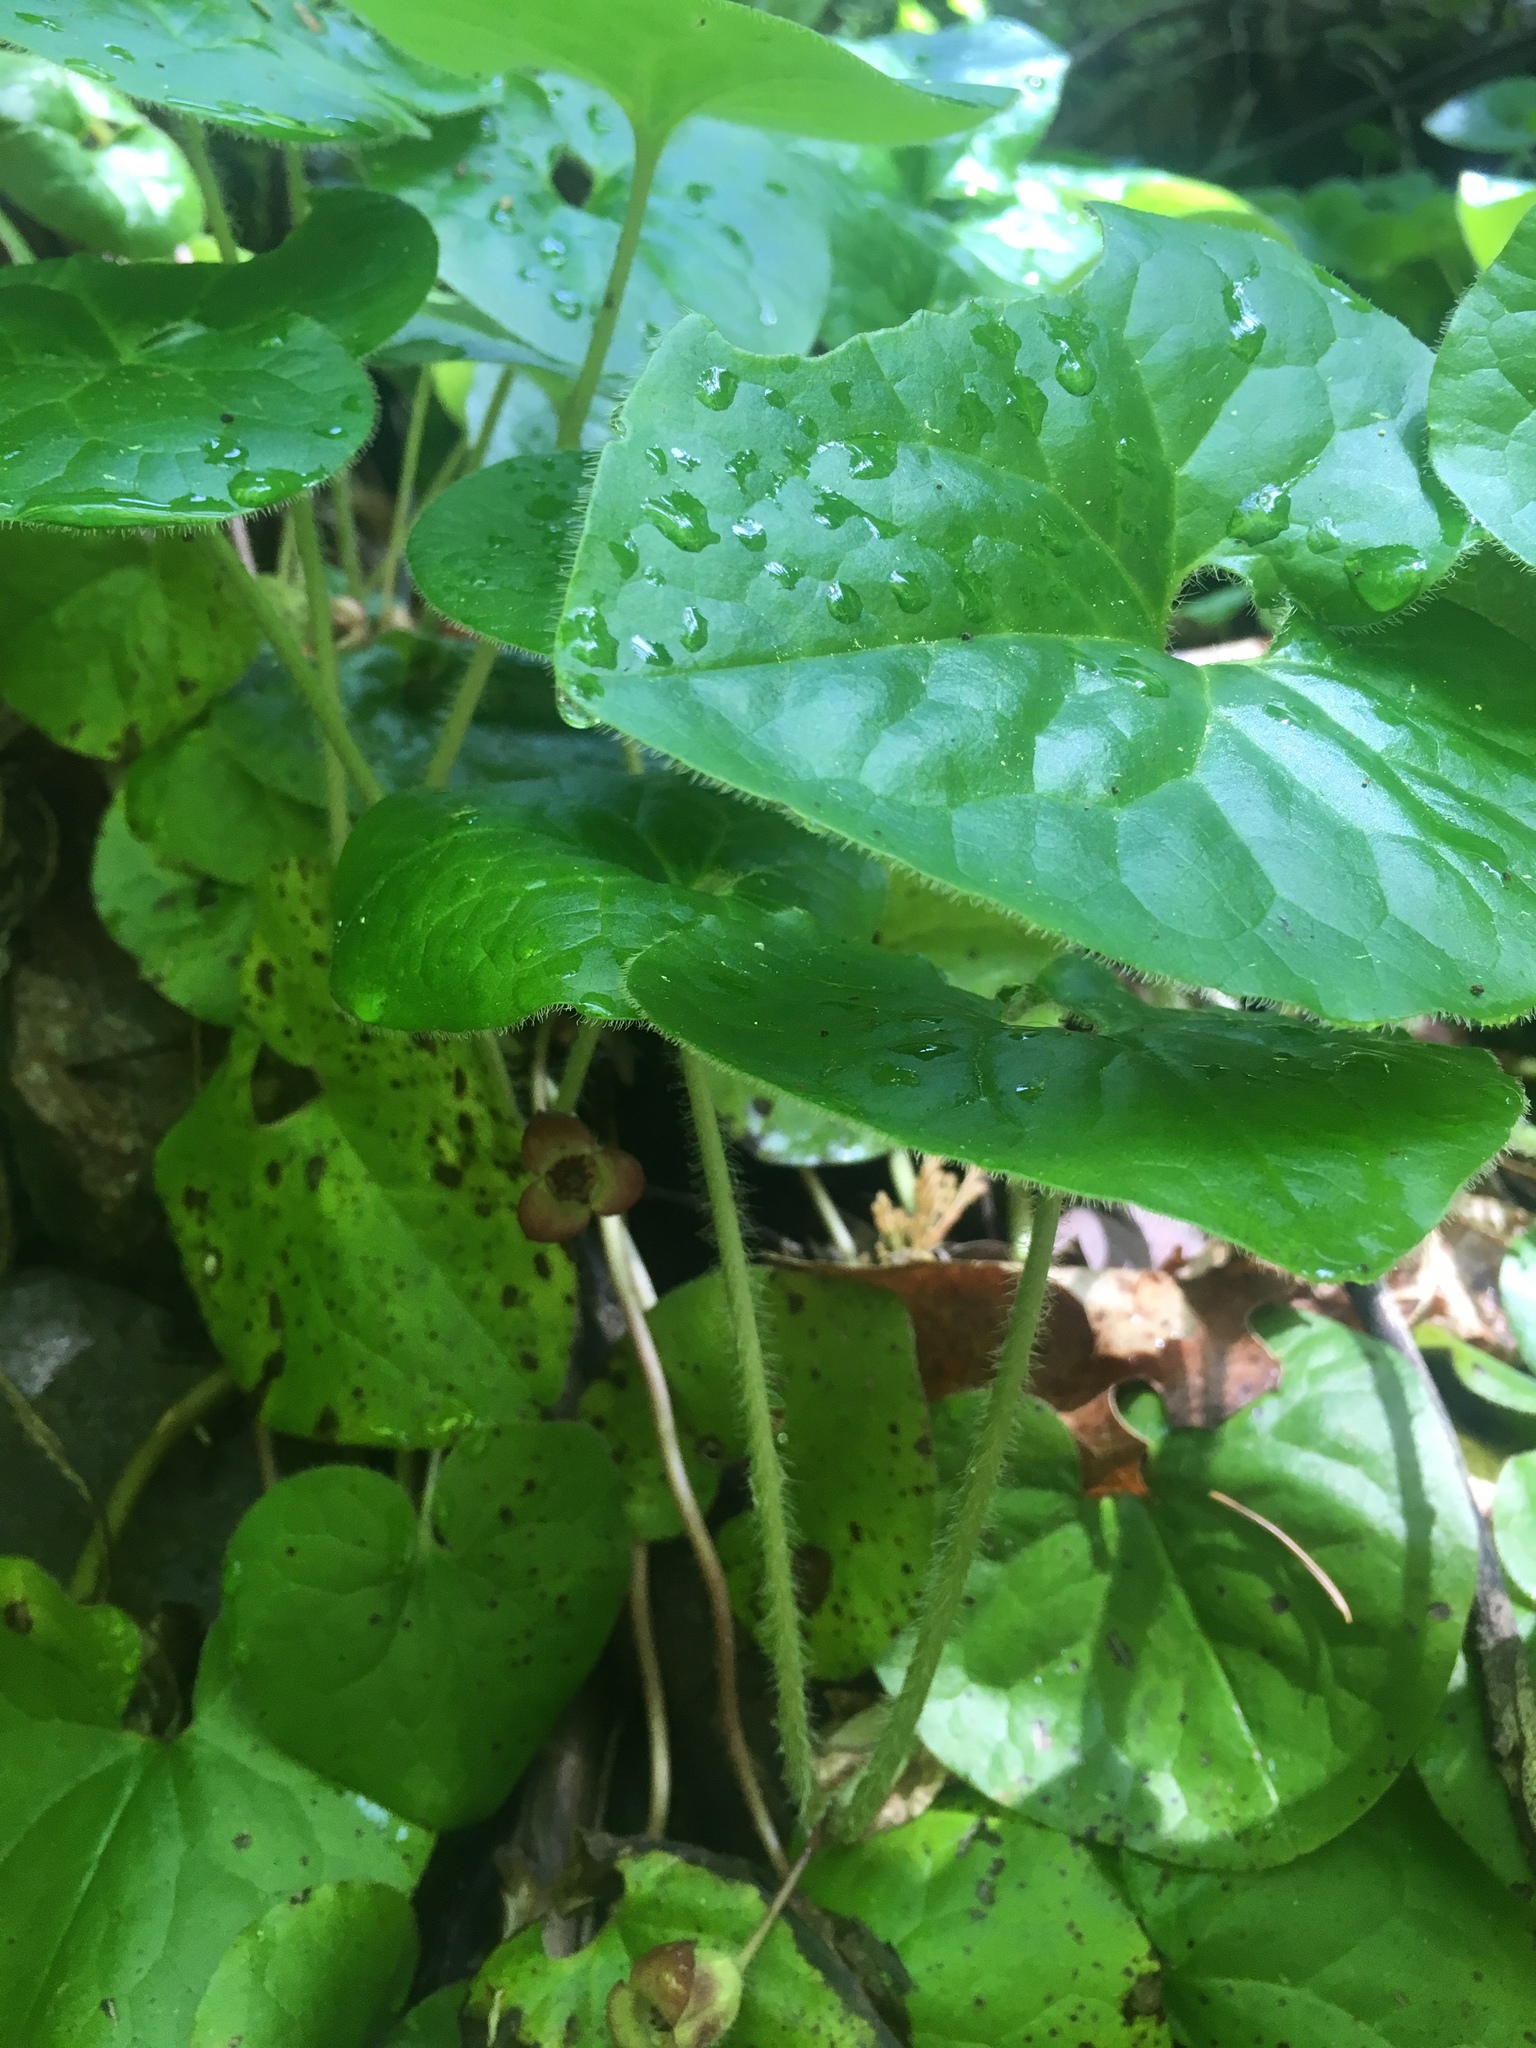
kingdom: Plantae
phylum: Tracheophyta
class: Magnoliopsida
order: Piperales
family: Aristolochiaceae
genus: Asarum
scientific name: Asarum lemmonii
